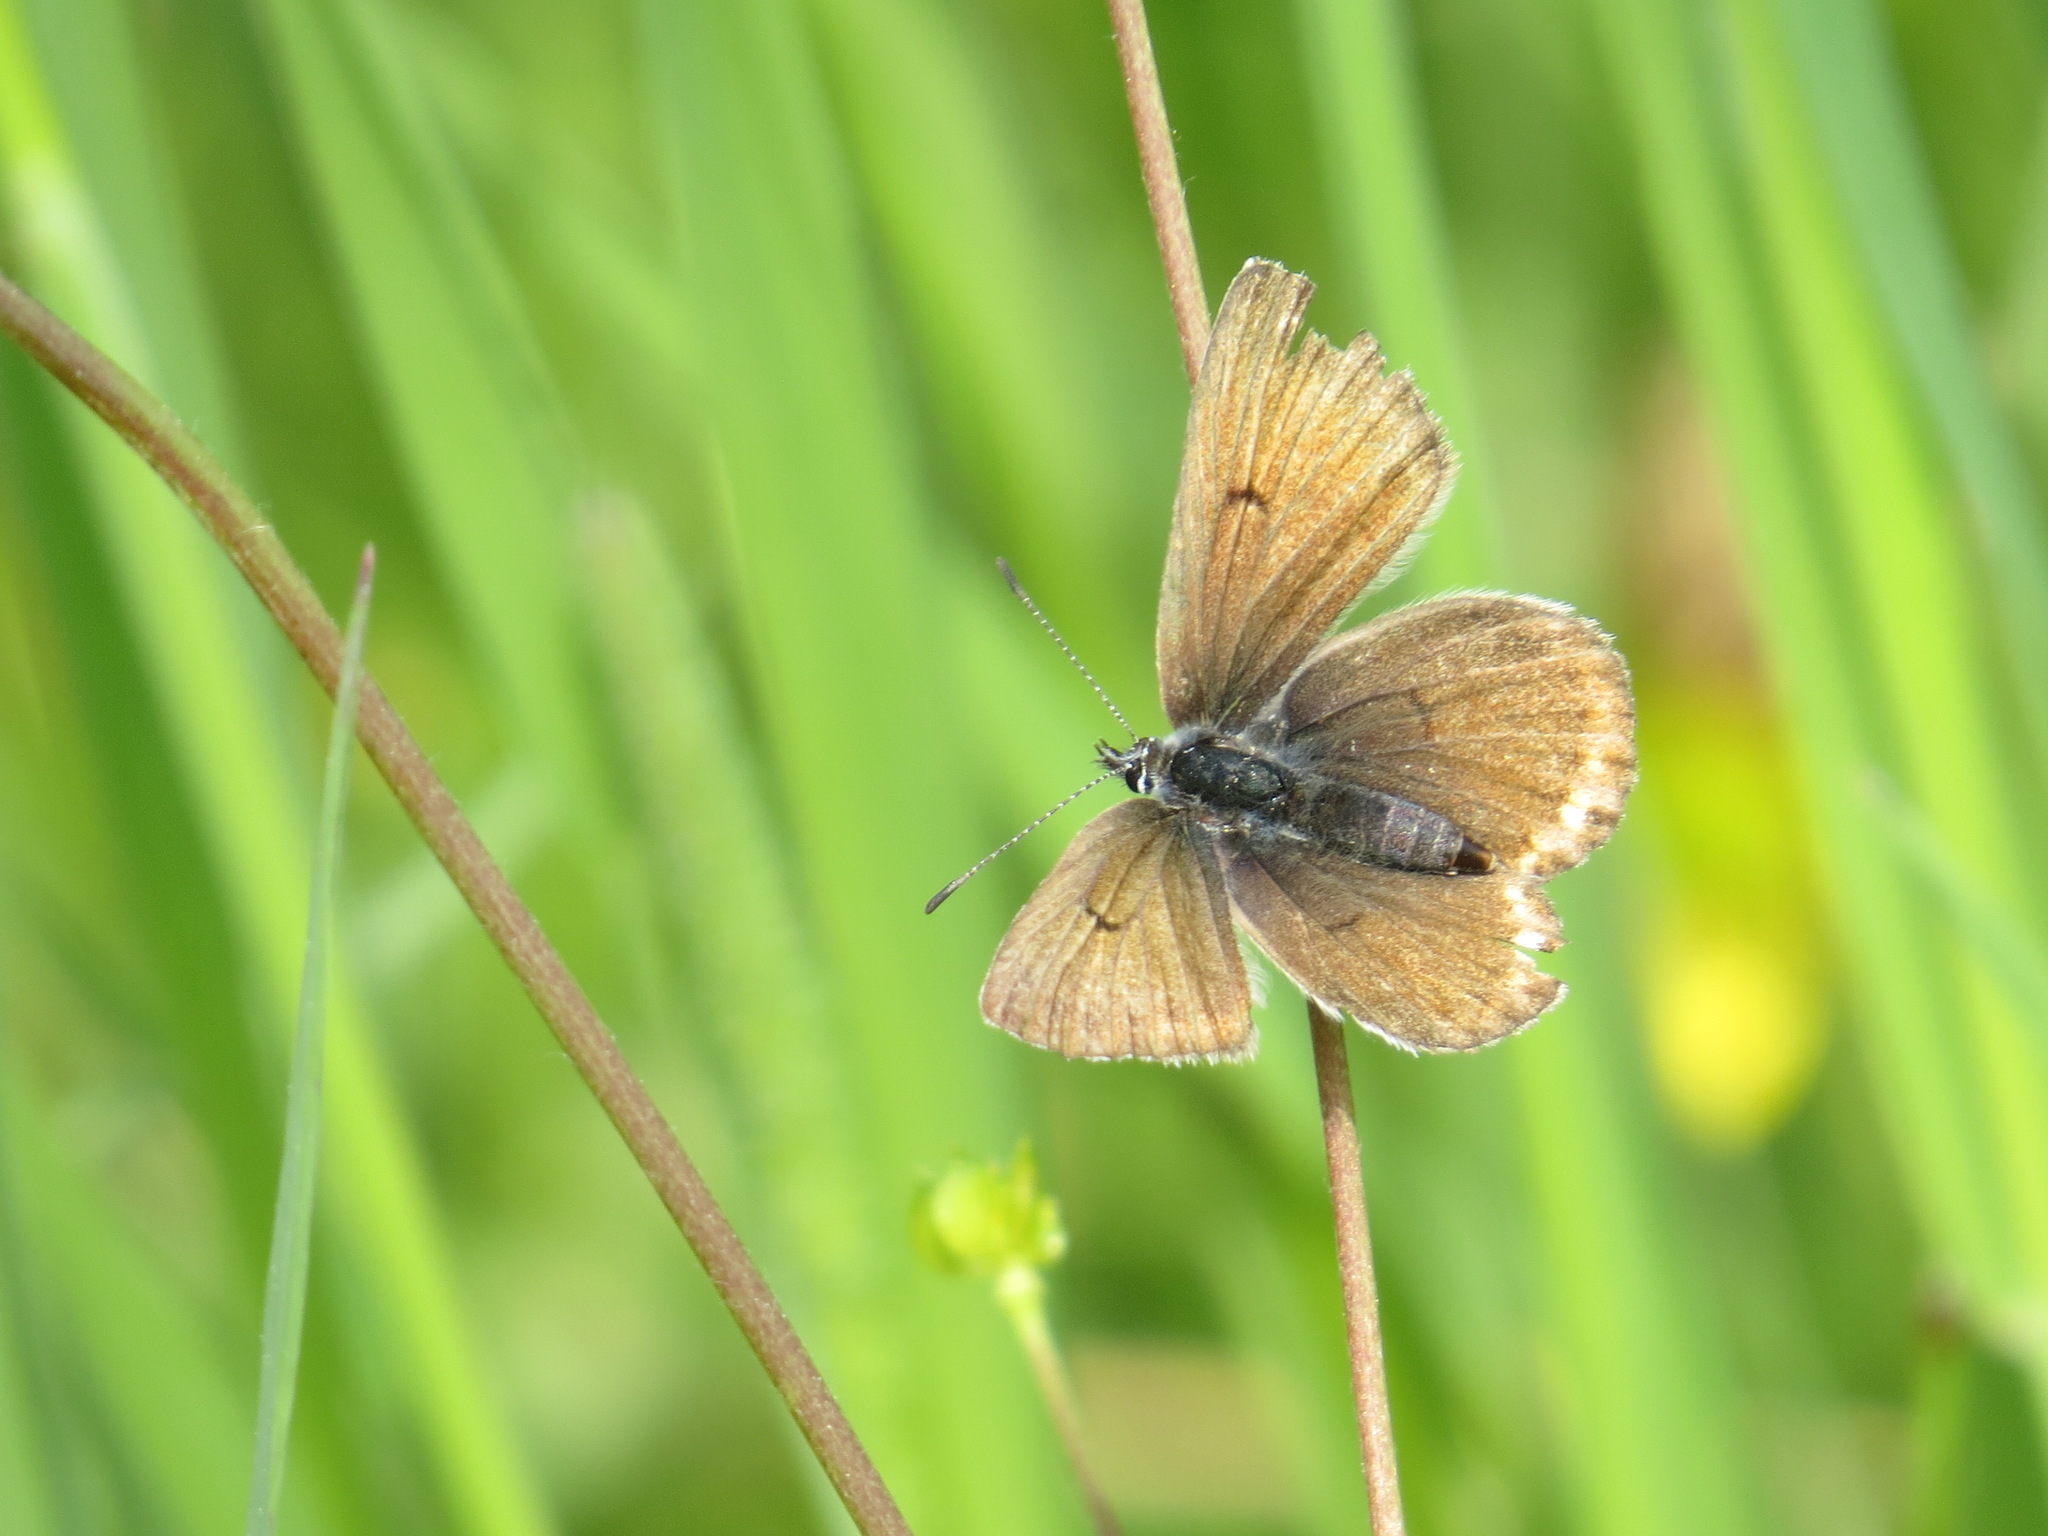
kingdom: Animalia
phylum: Arthropoda
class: Insecta
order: Lepidoptera
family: Lycaenidae
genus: Icaricia
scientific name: Icaricia saepiolus
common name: Greenish blue
